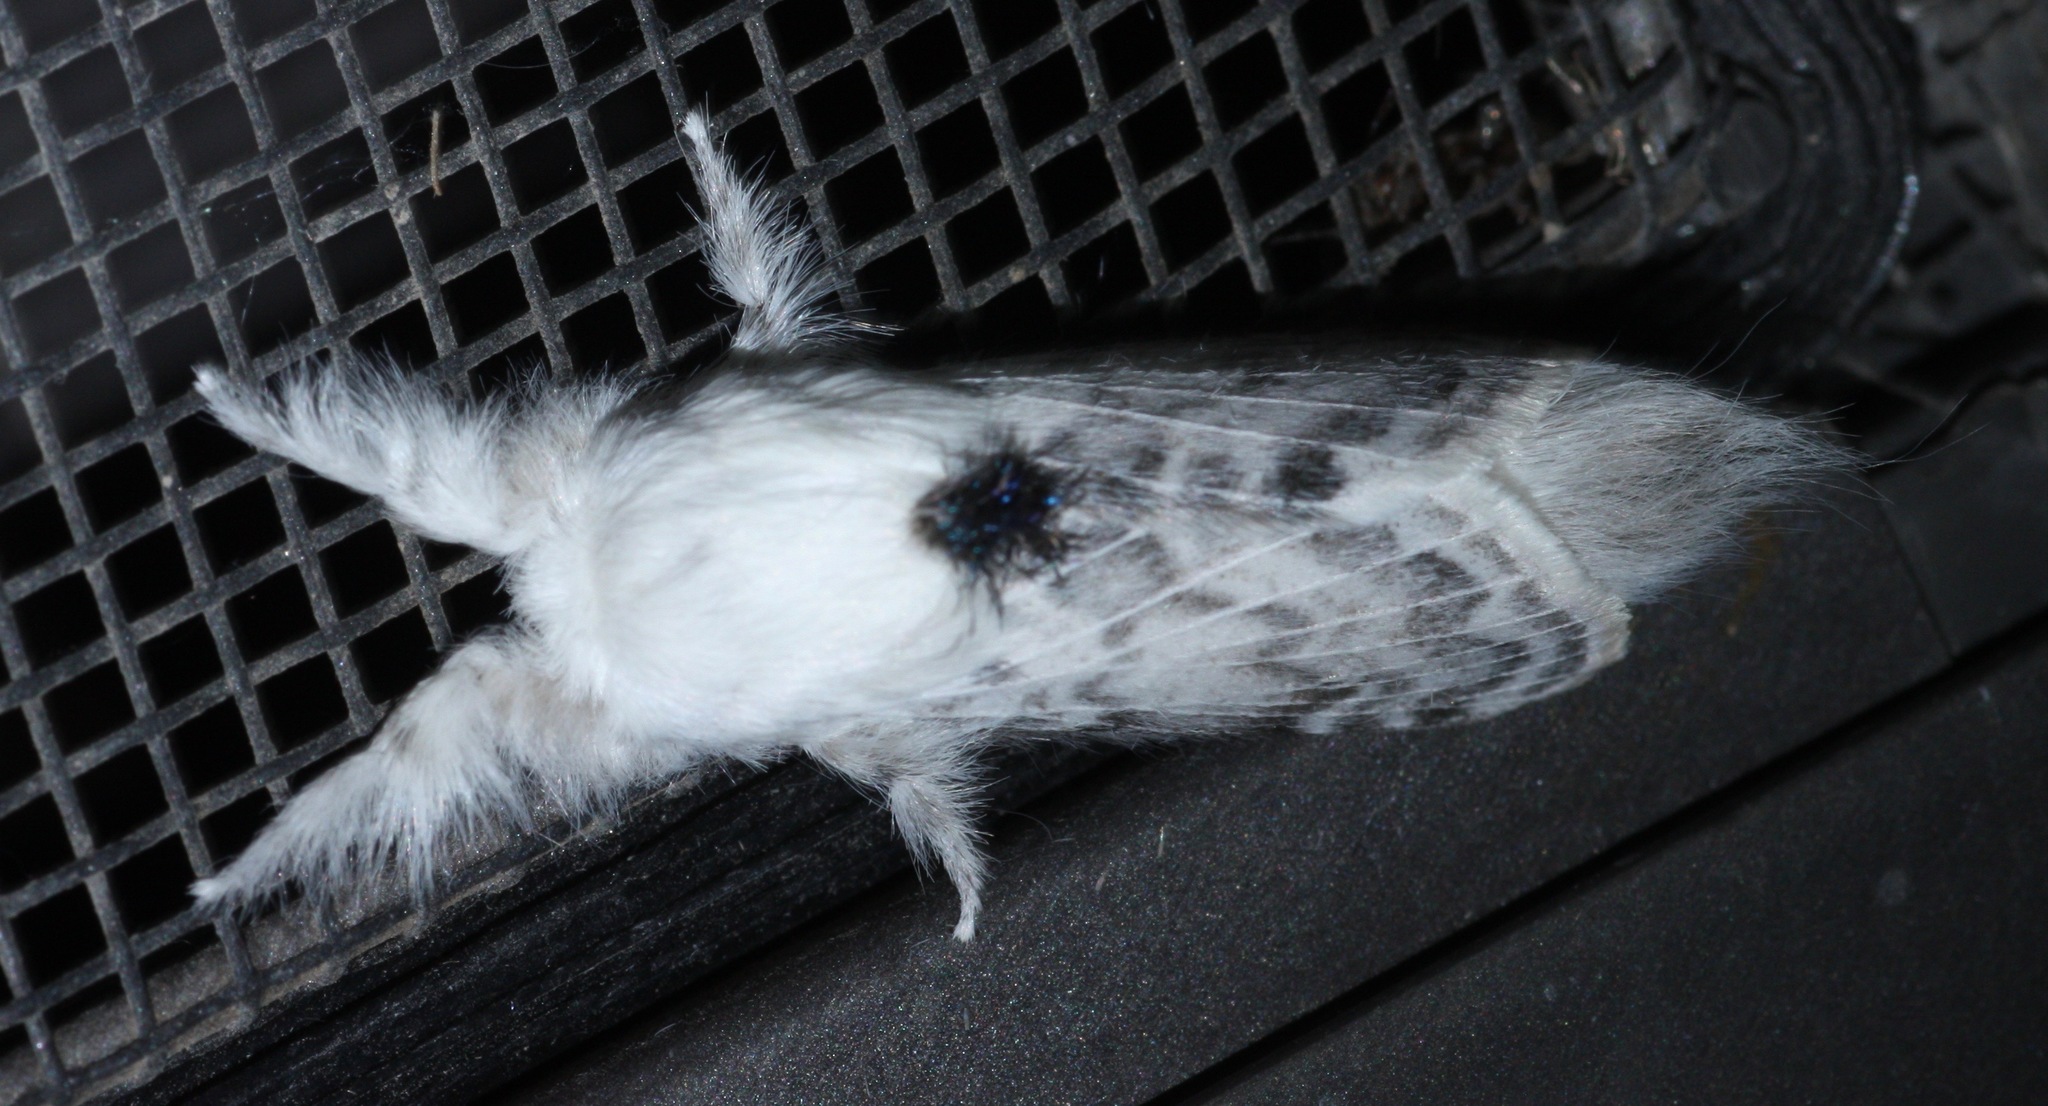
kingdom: Animalia
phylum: Arthropoda
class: Insecta
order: Lepidoptera
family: Lasiocampidae
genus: Apotolype
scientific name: Apotolype brevicrista
